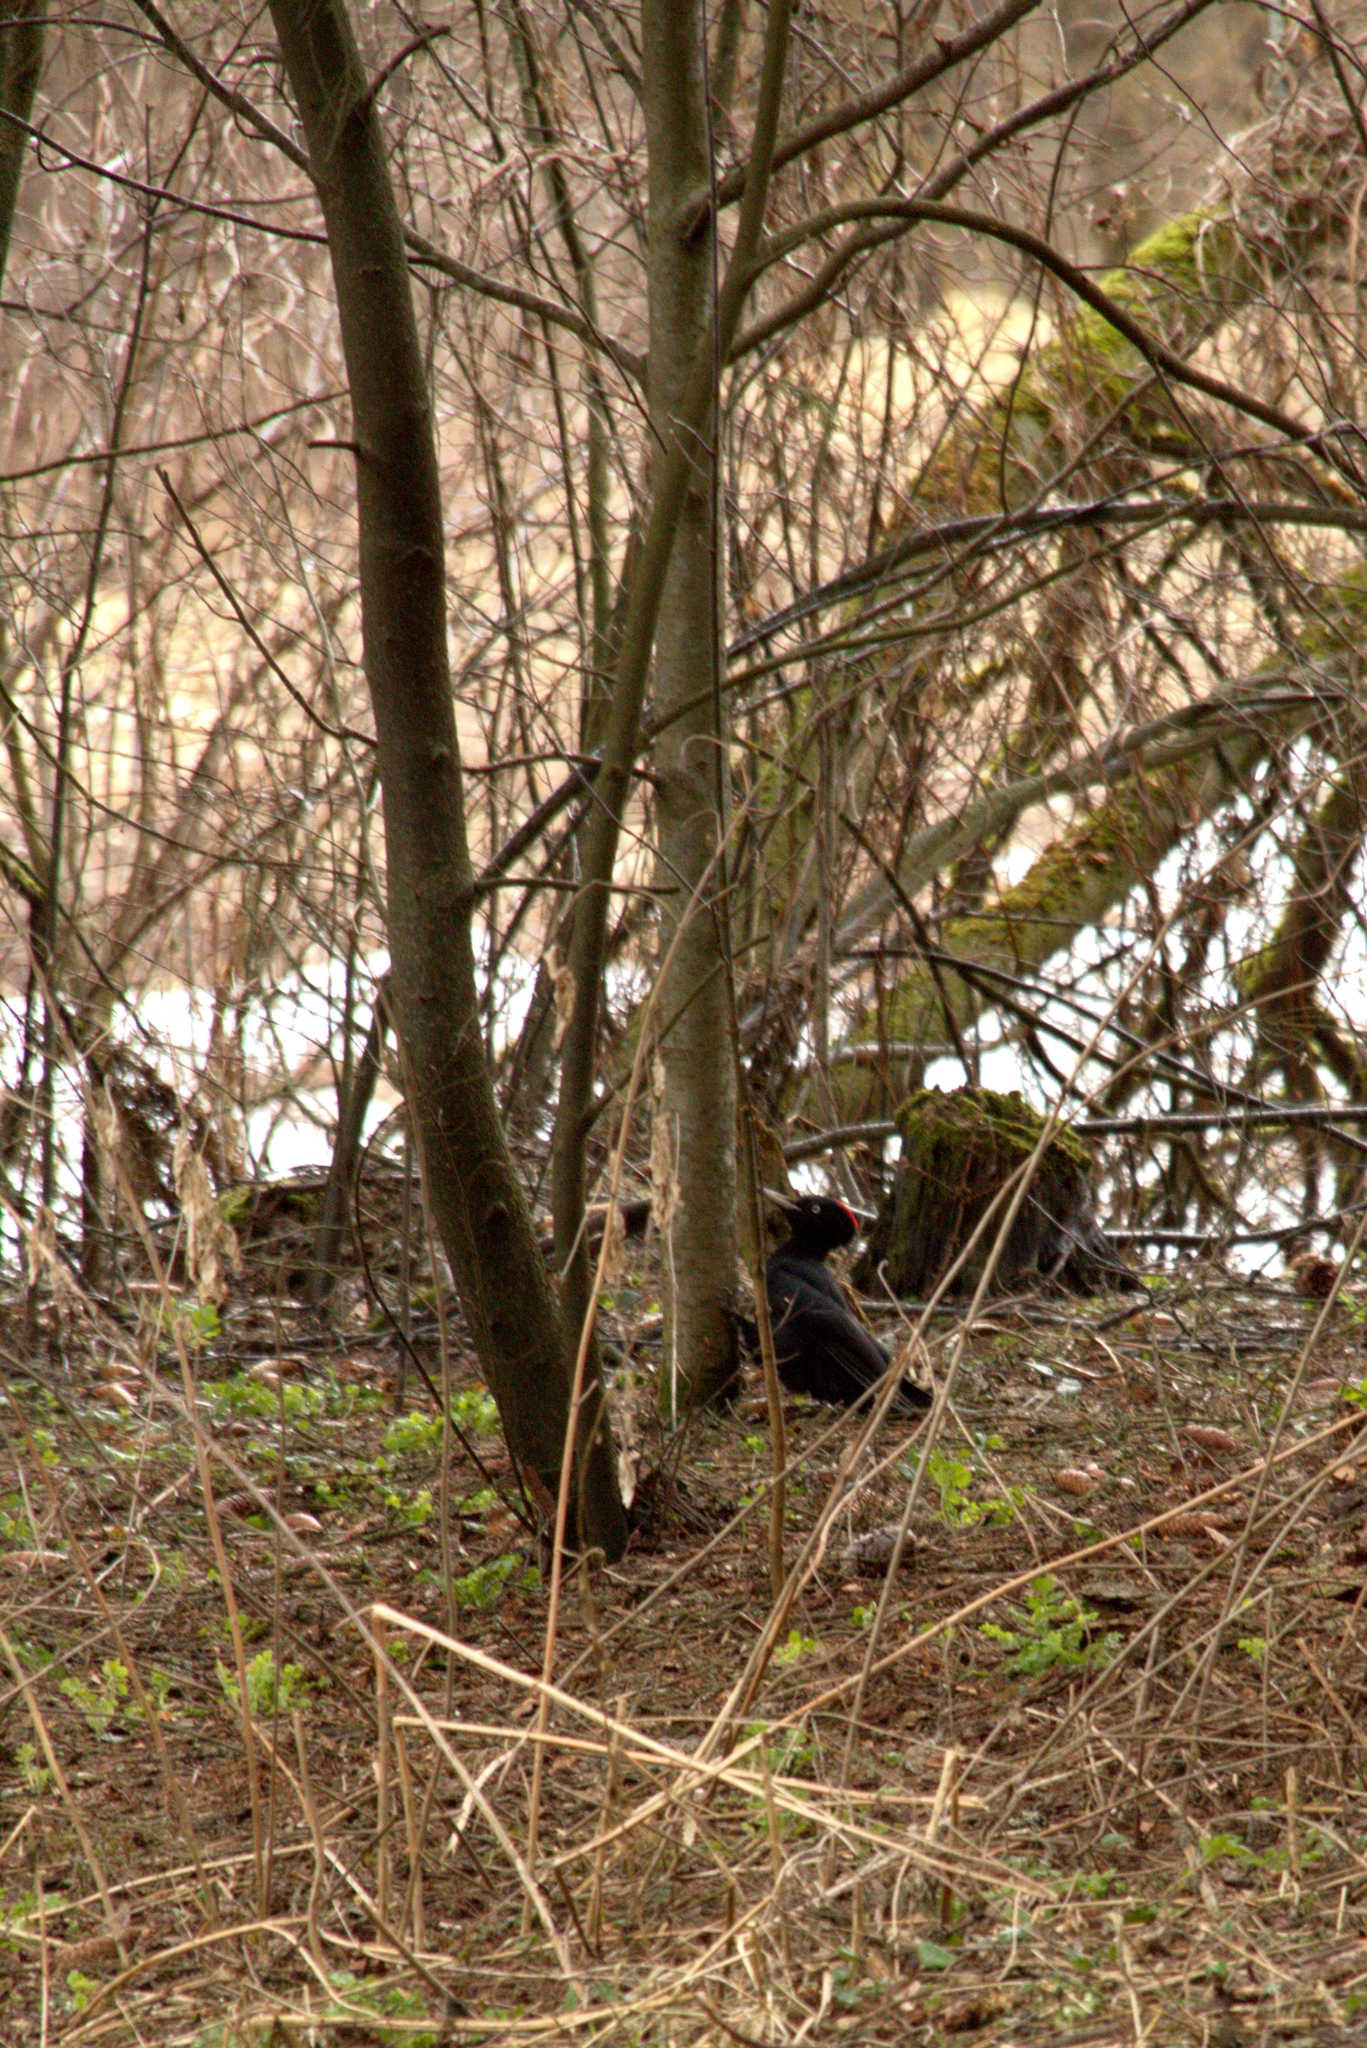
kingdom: Animalia
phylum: Chordata
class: Aves
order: Piciformes
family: Picidae
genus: Dryocopus
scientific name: Dryocopus martius
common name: Black woodpecker
